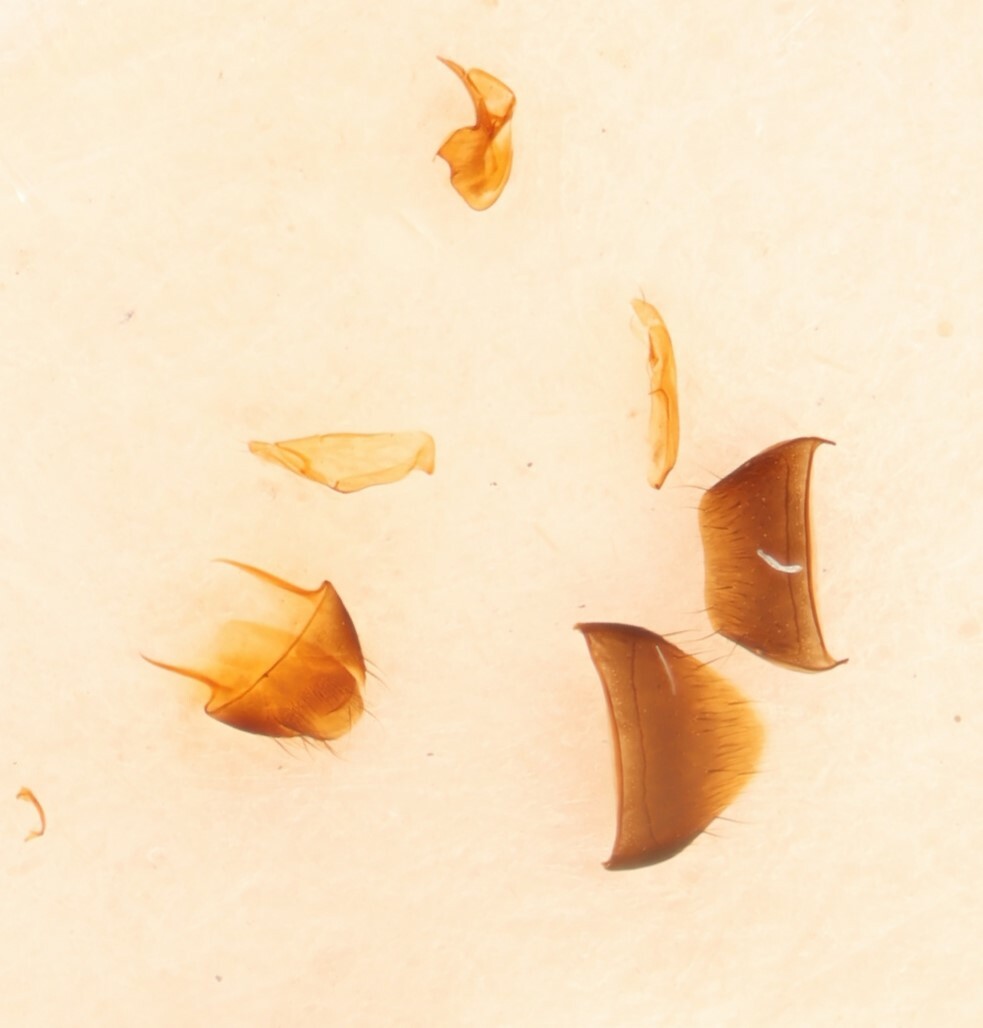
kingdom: Animalia
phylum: Arthropoda
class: Insecta
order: Coleoptera
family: Staphylinidae
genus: Trichiusa
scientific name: Trichiusa hirsuta
